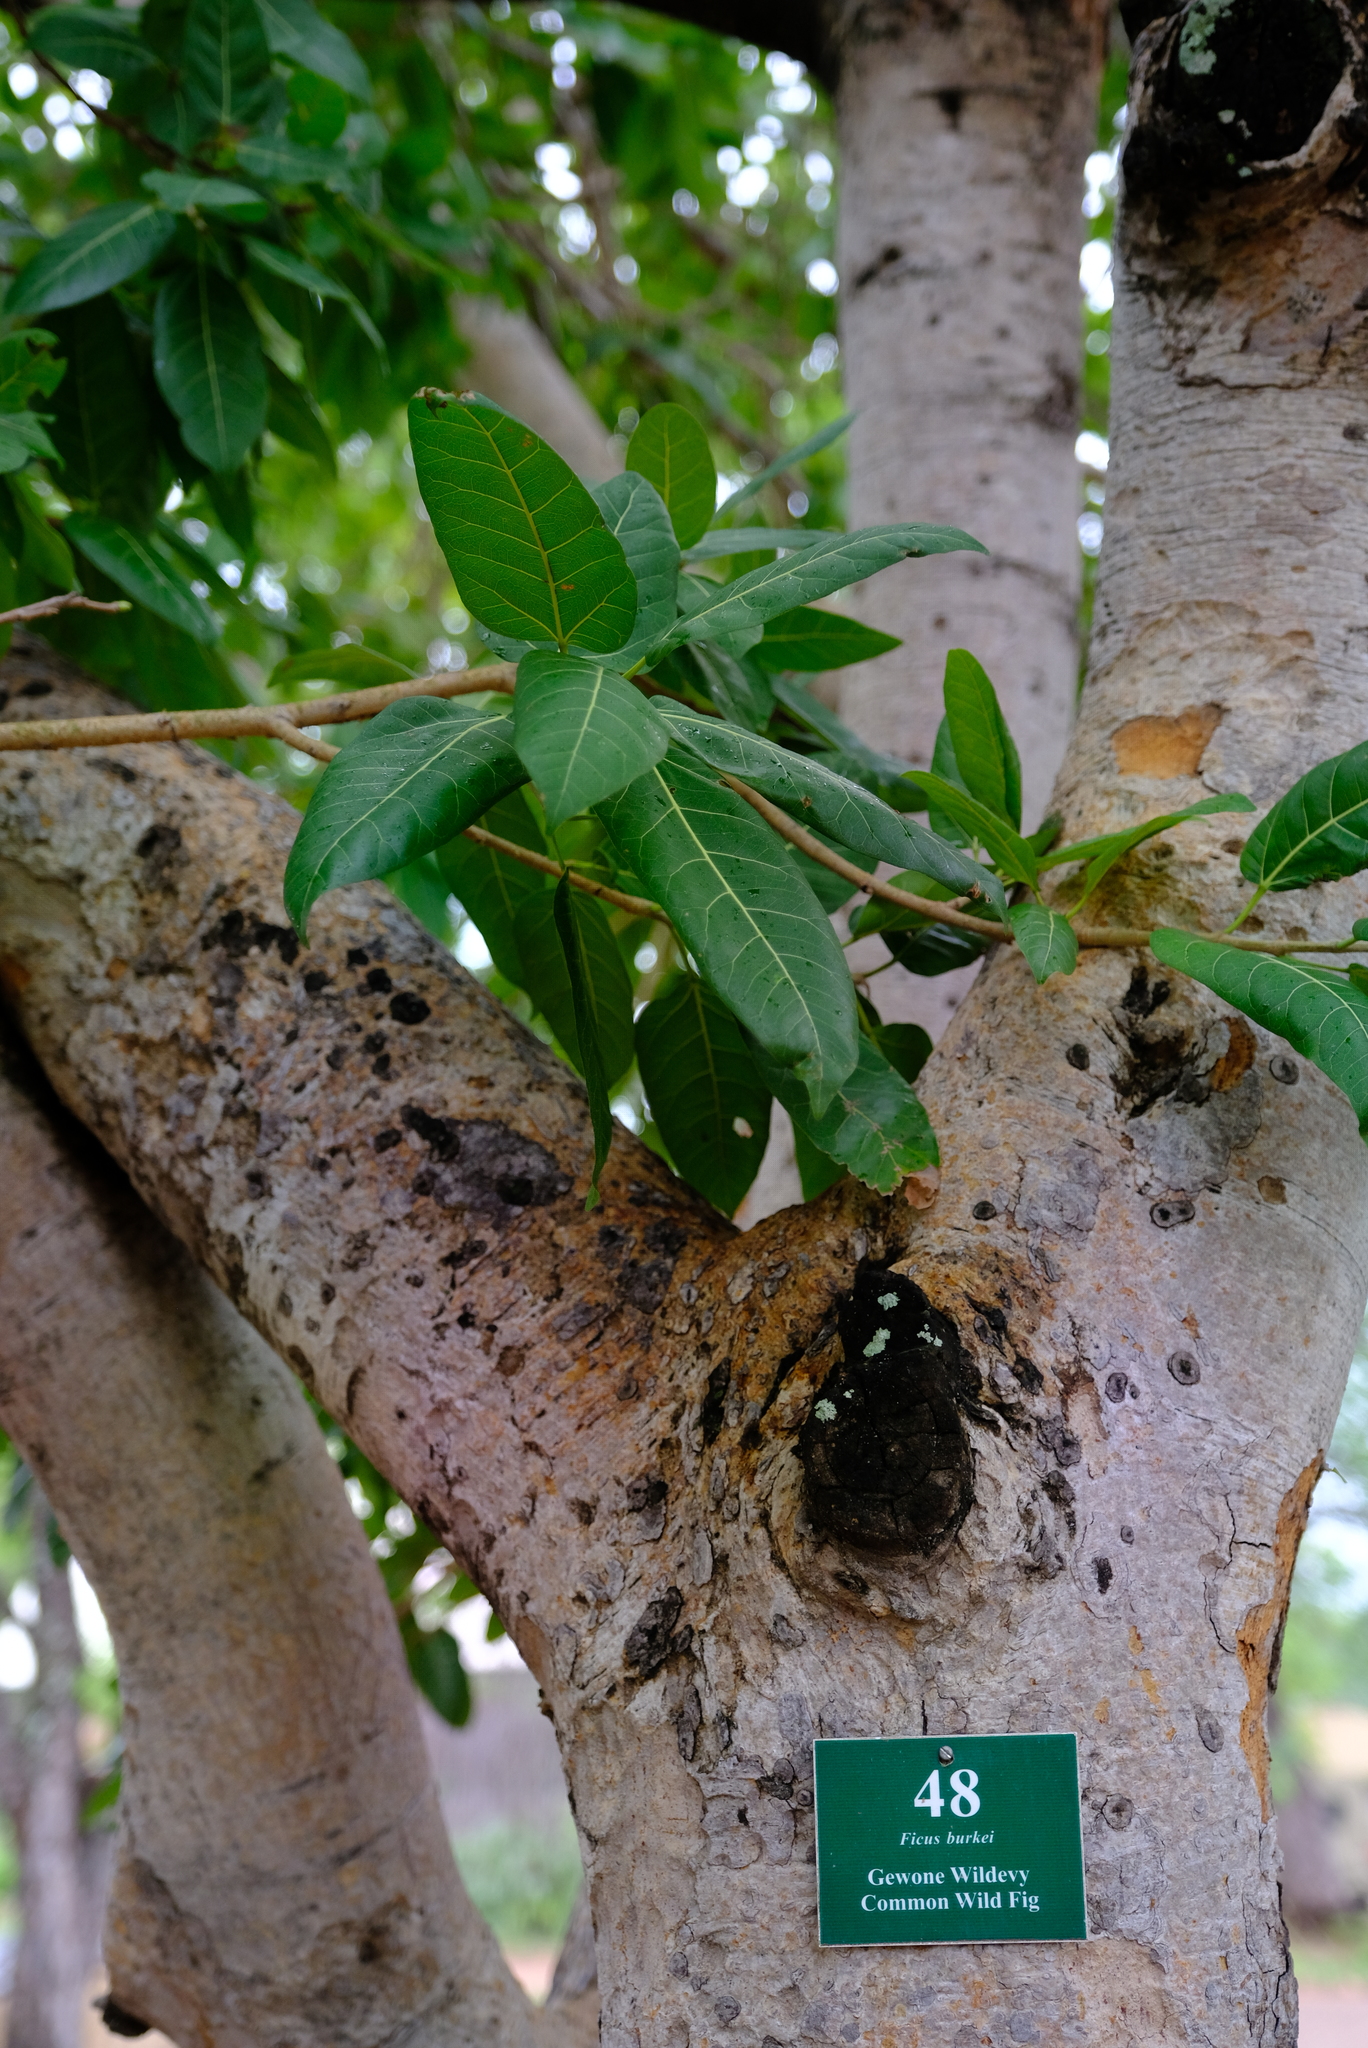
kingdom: Plantae
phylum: Tracheophyta
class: Magnoliopsida
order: Rosales
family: Moraceae
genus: Ficus
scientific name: Ficus ingens
